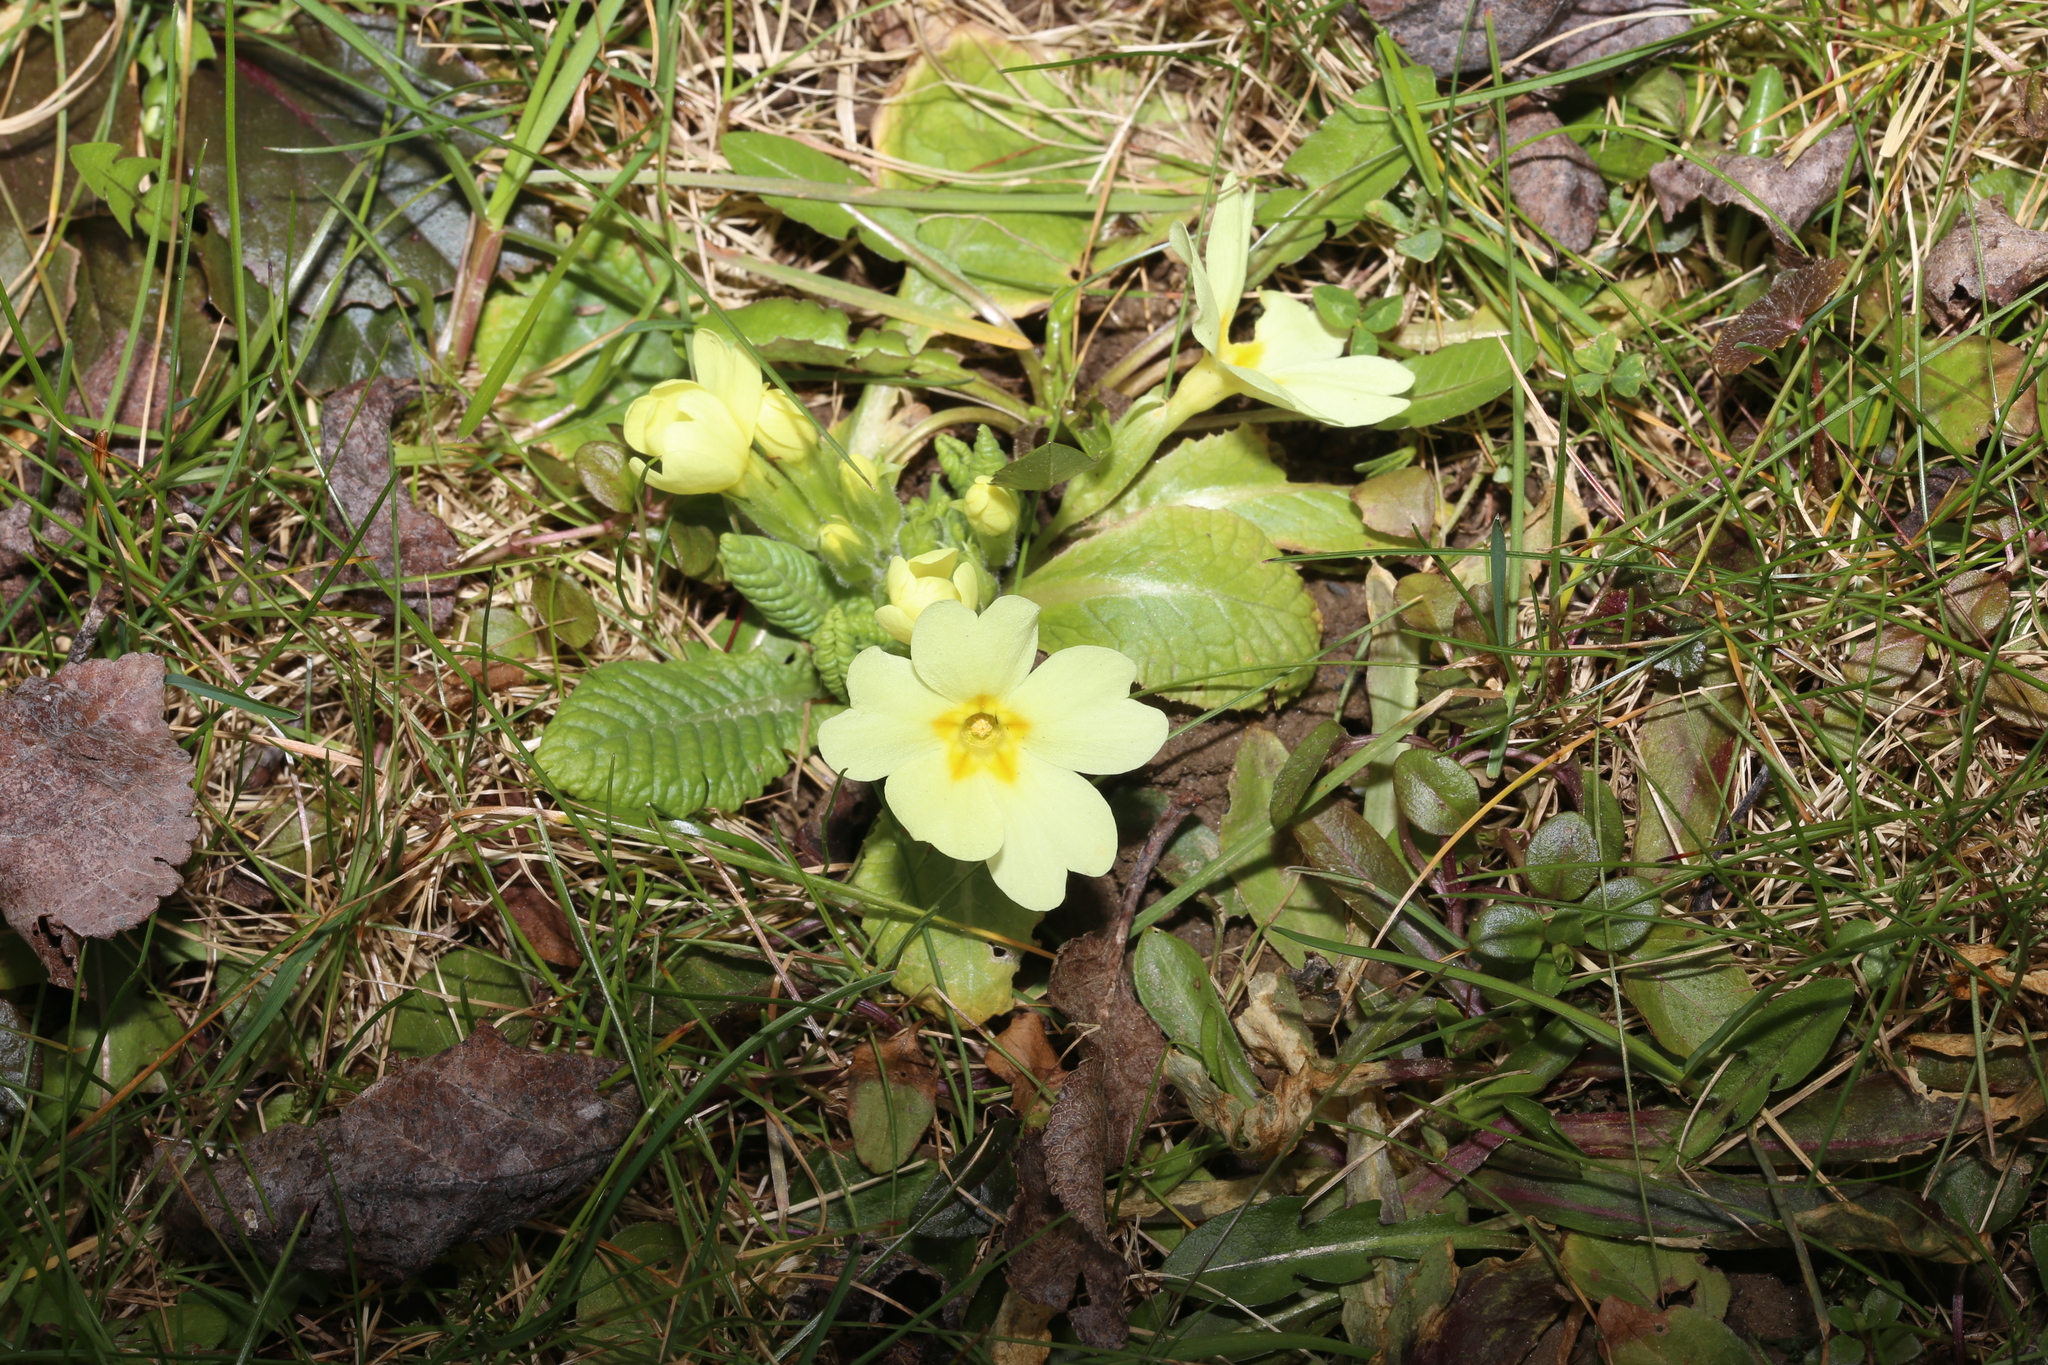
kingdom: Plantae
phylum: Tracheophyta
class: Magnoliopsida
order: Ericales
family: Primulaceae
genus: Primula
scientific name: Primula vulgaris
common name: Primrose
